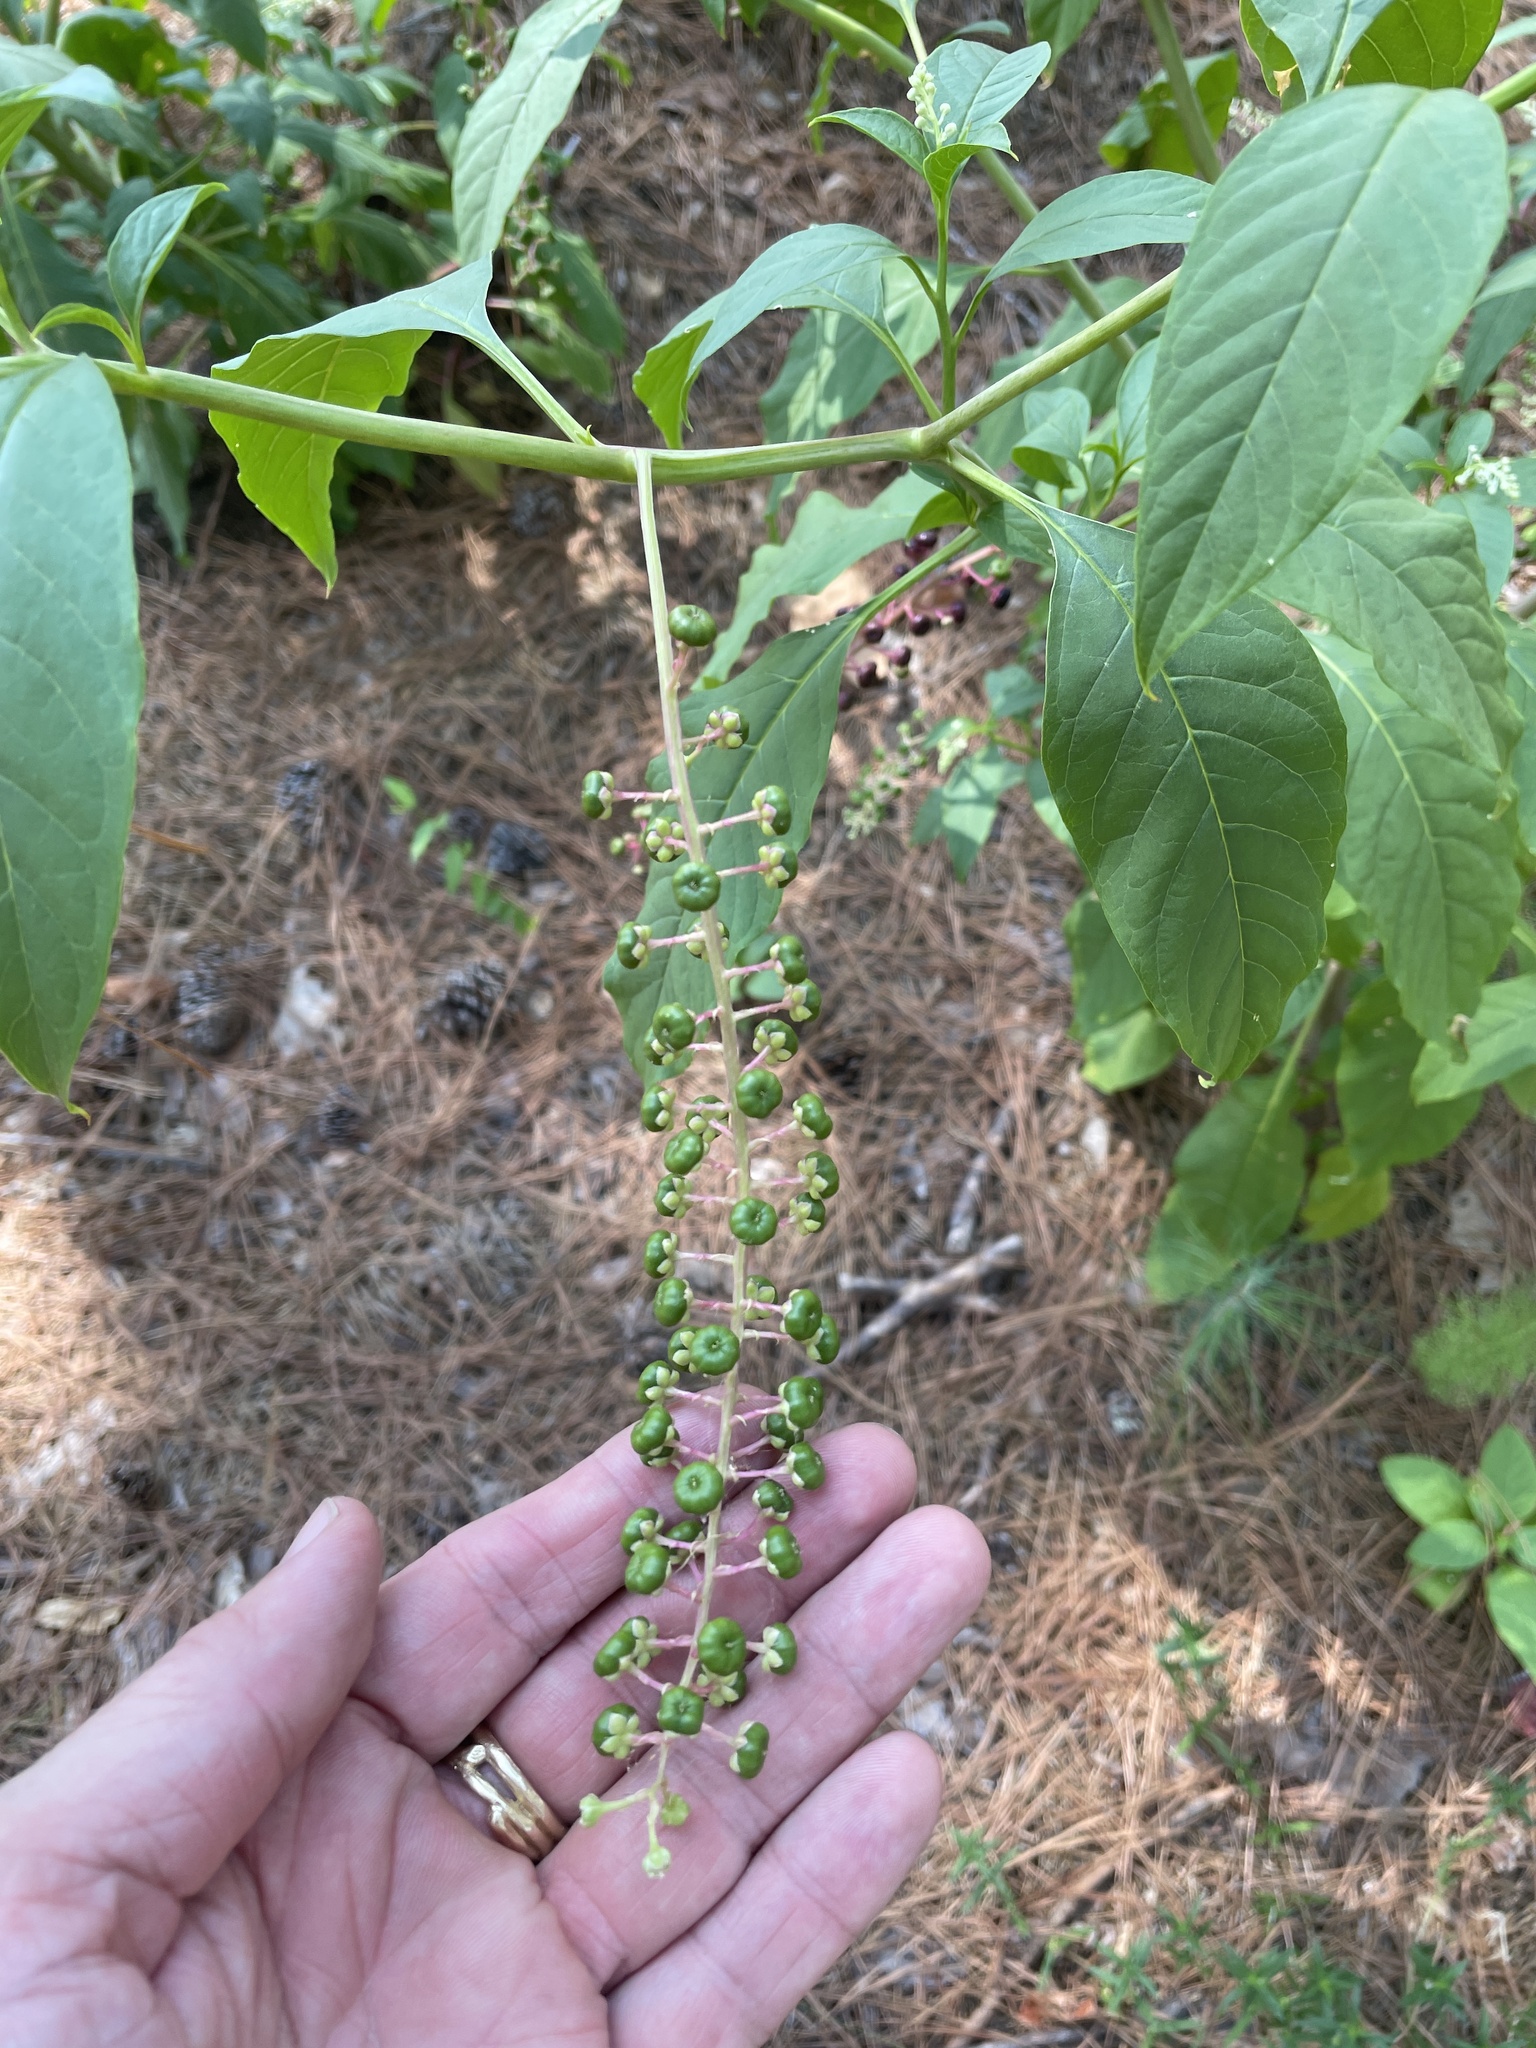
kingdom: Plantae
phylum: Tracheophyta
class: Magnoliopsida
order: Caryophyllales
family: Phytolaccaceae
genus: Phytolacca
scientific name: Phytolacca americana
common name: American pokeweed
